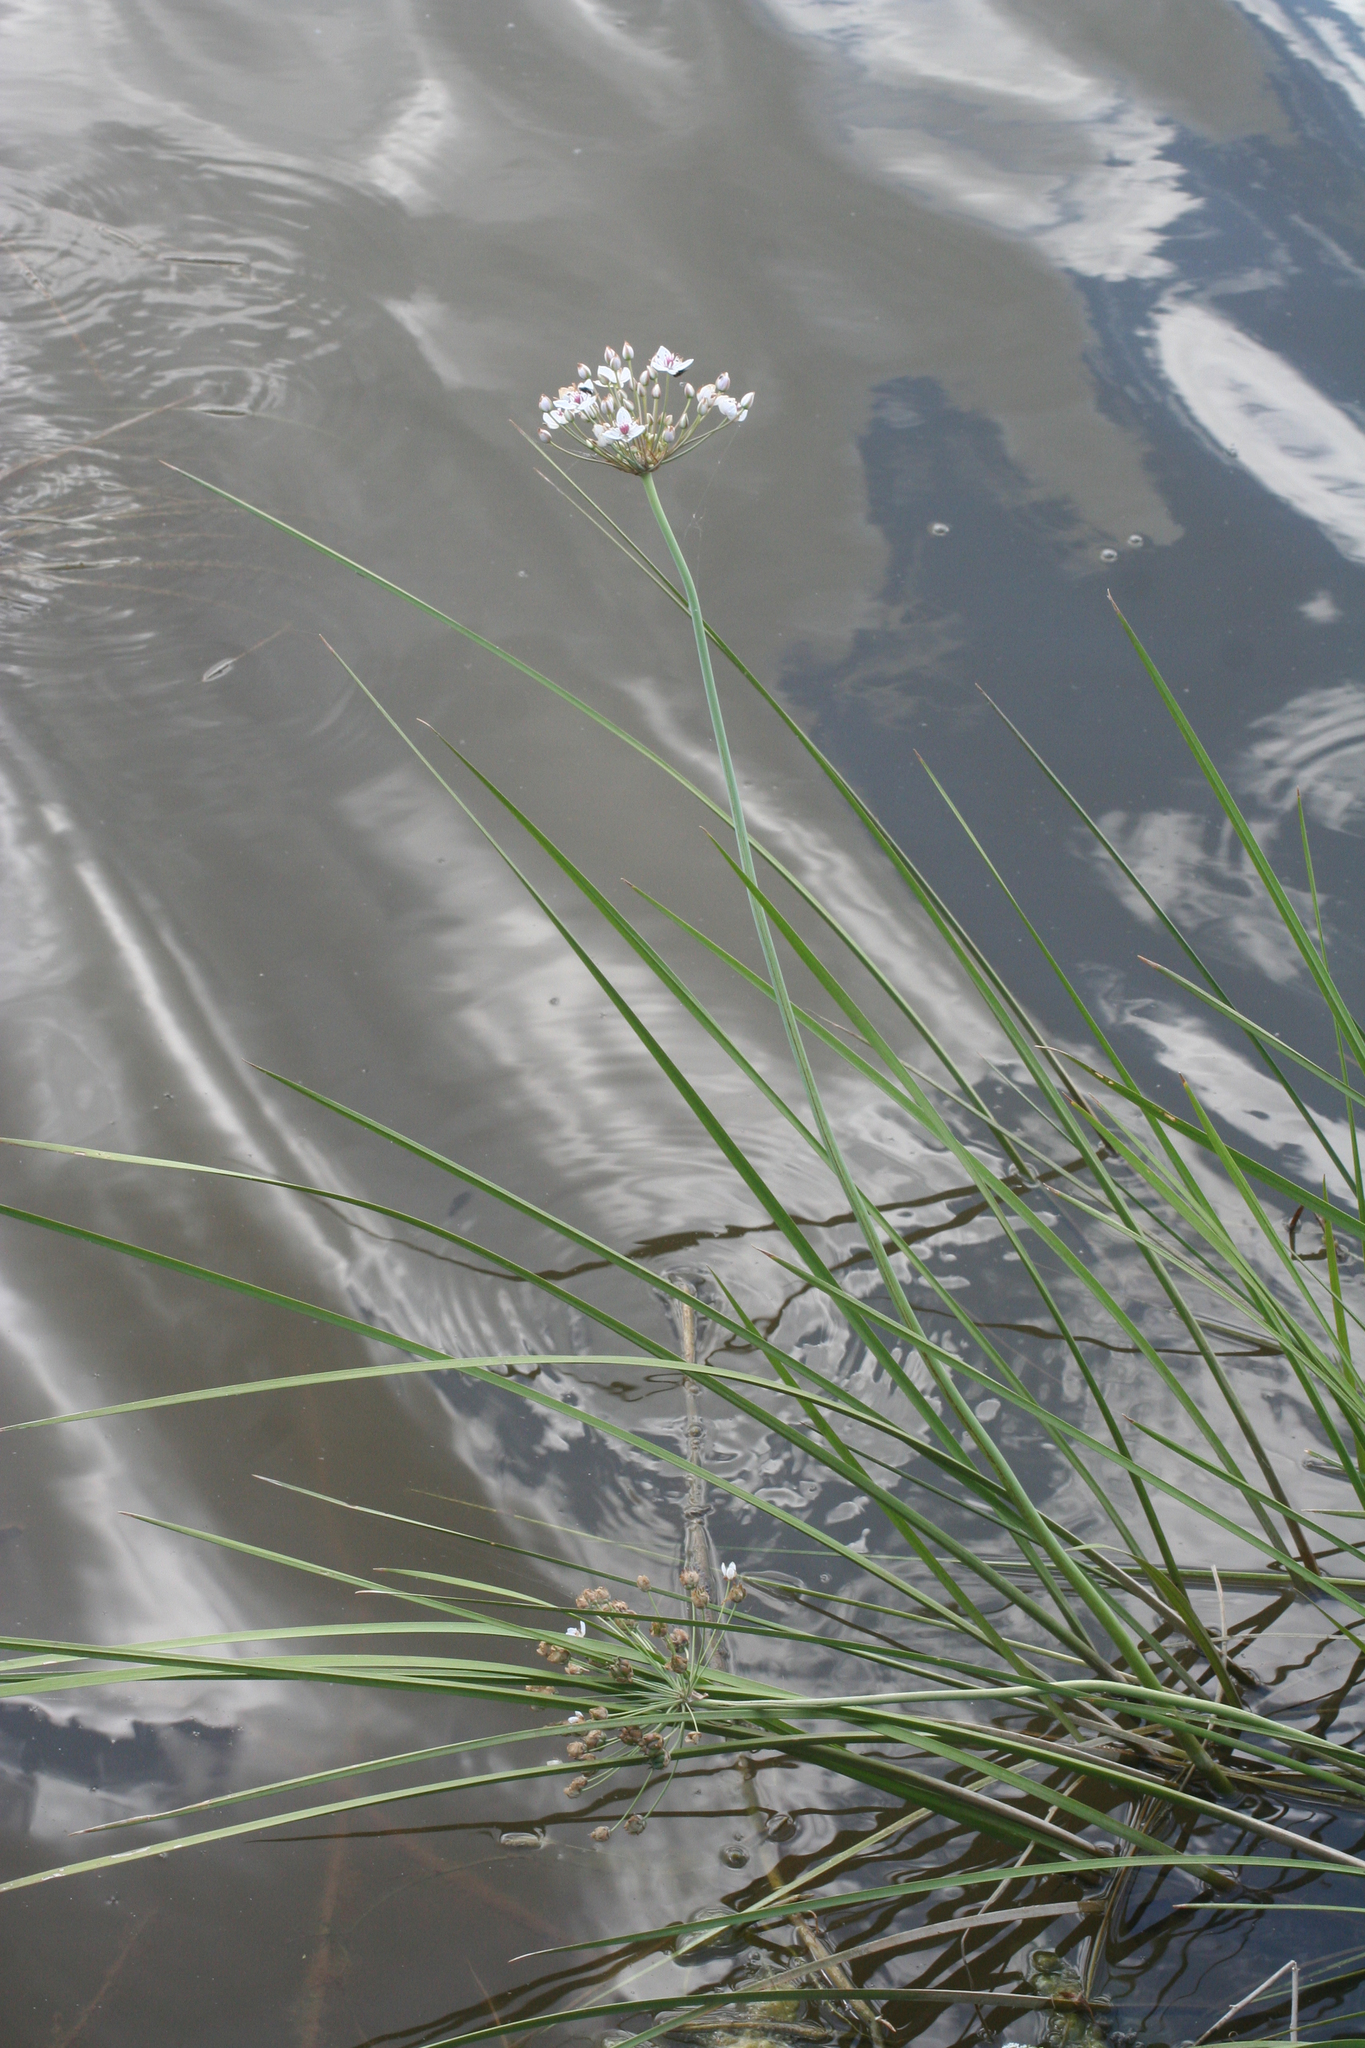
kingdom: Plantae
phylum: Tracheophyta
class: Liliopsida
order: Alismatales
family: Butomaceae
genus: Butomus
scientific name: Butomus umbellatus
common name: Flowering-rush
